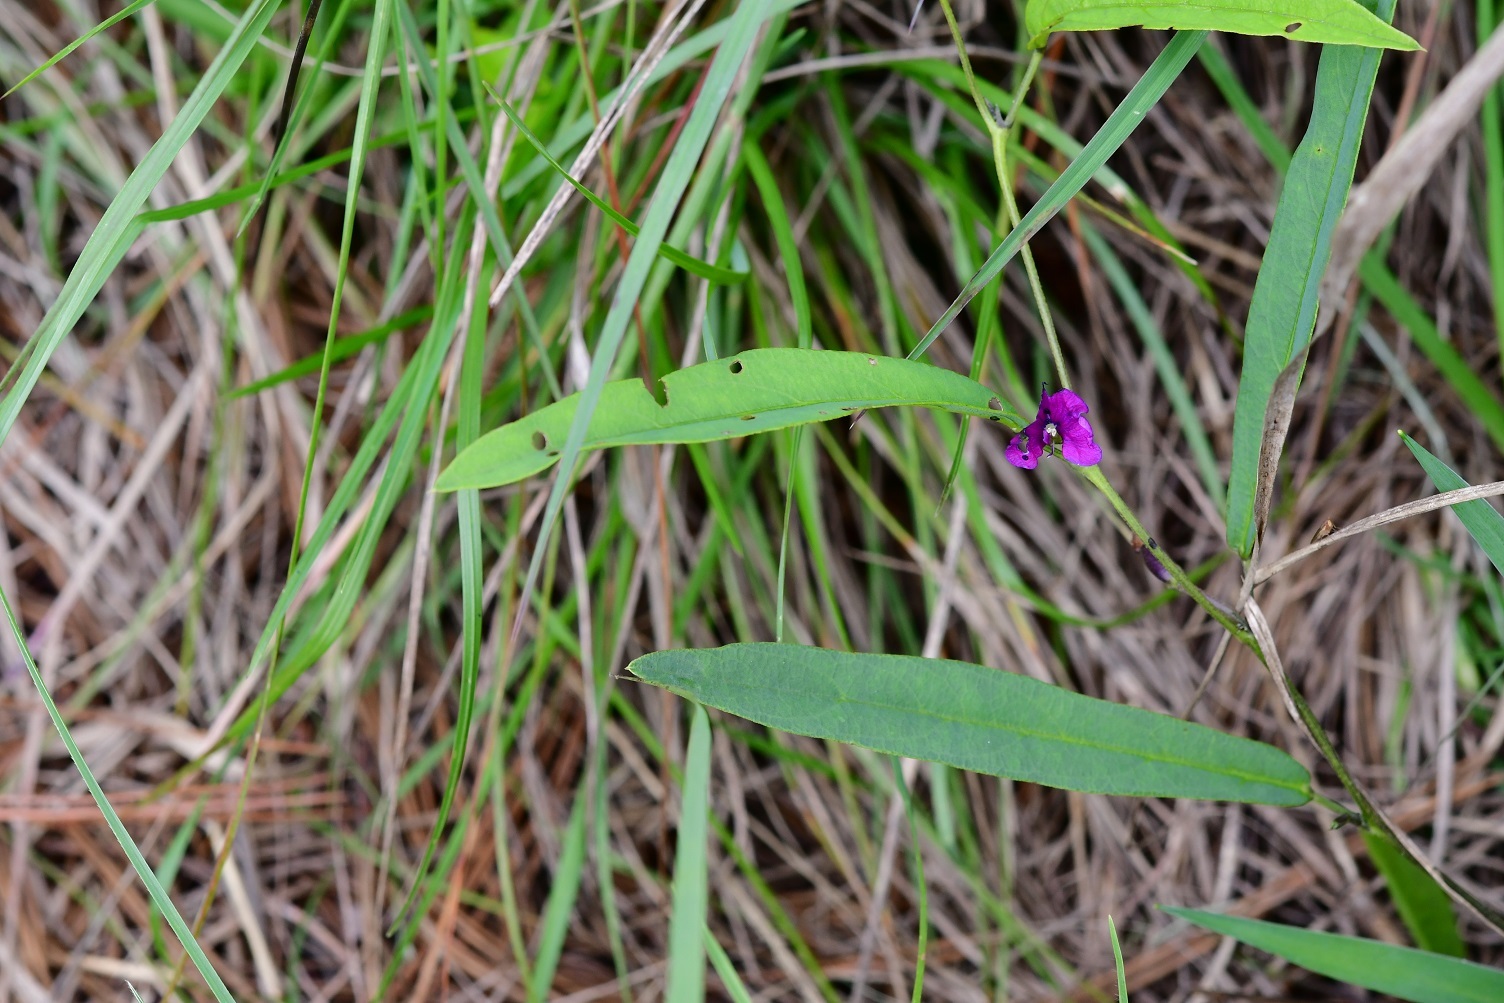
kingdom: Plantae
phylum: Tracheophyta
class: Magnoliopsida
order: Fabales
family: Fabaceae
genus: Cologania
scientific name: Cologania procumbens
